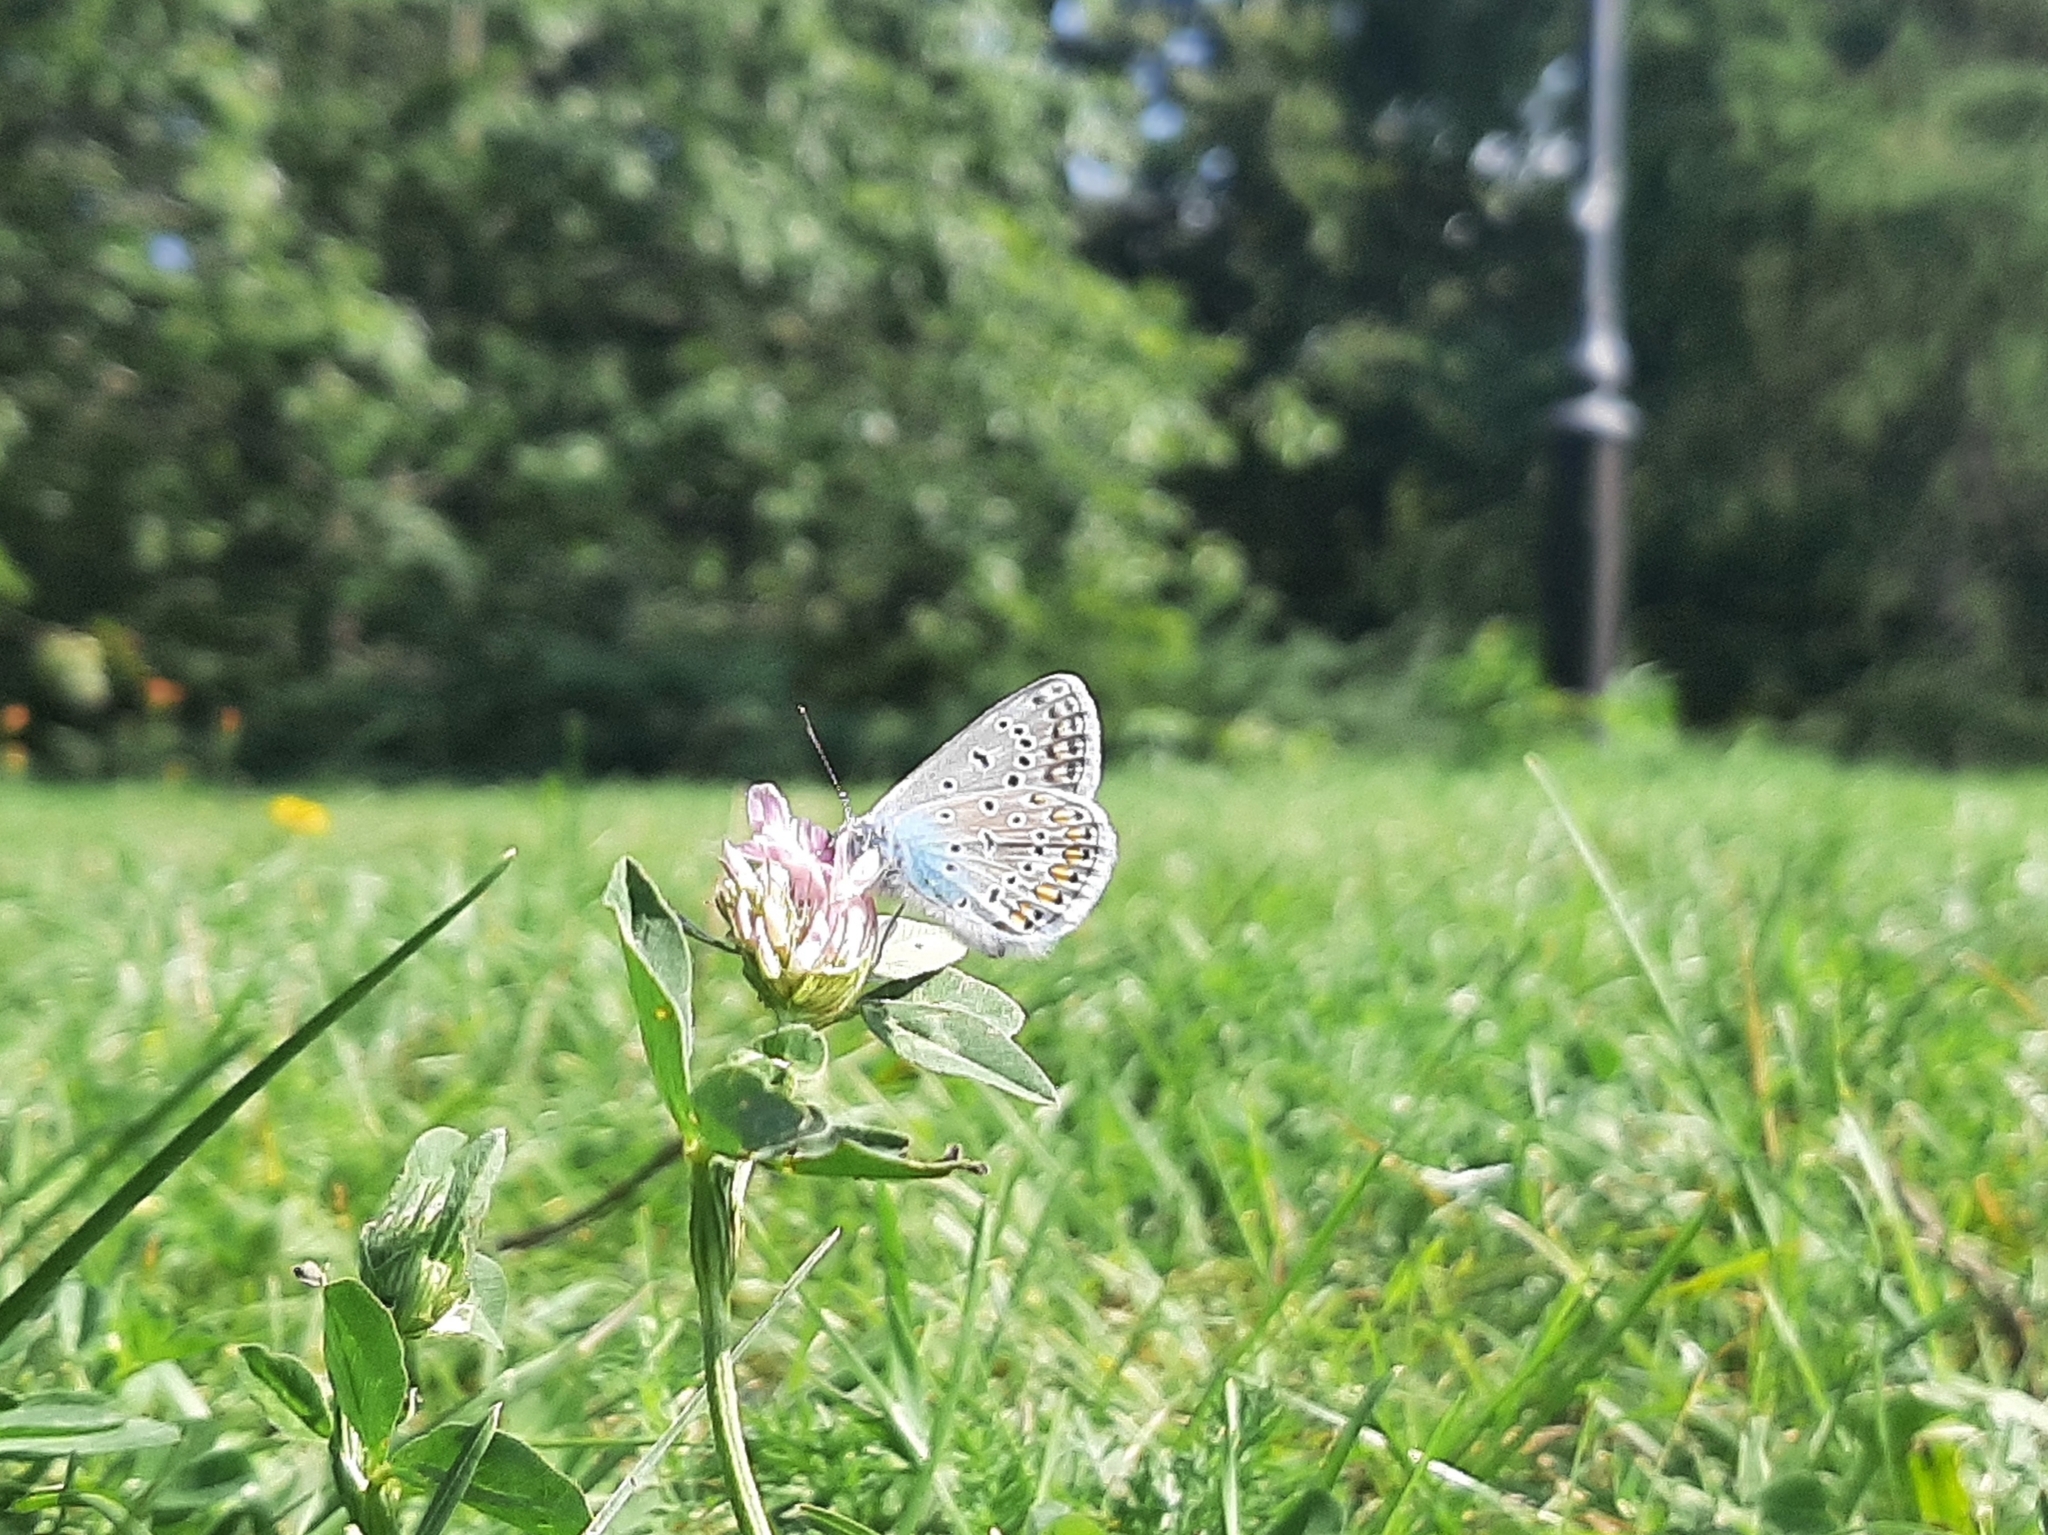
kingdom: Animalia
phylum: Arthropoda
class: Insecta
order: Lepidoptera
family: Lycaenidae
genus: Polyommatus
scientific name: Polyommatus icarus
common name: Common blue
